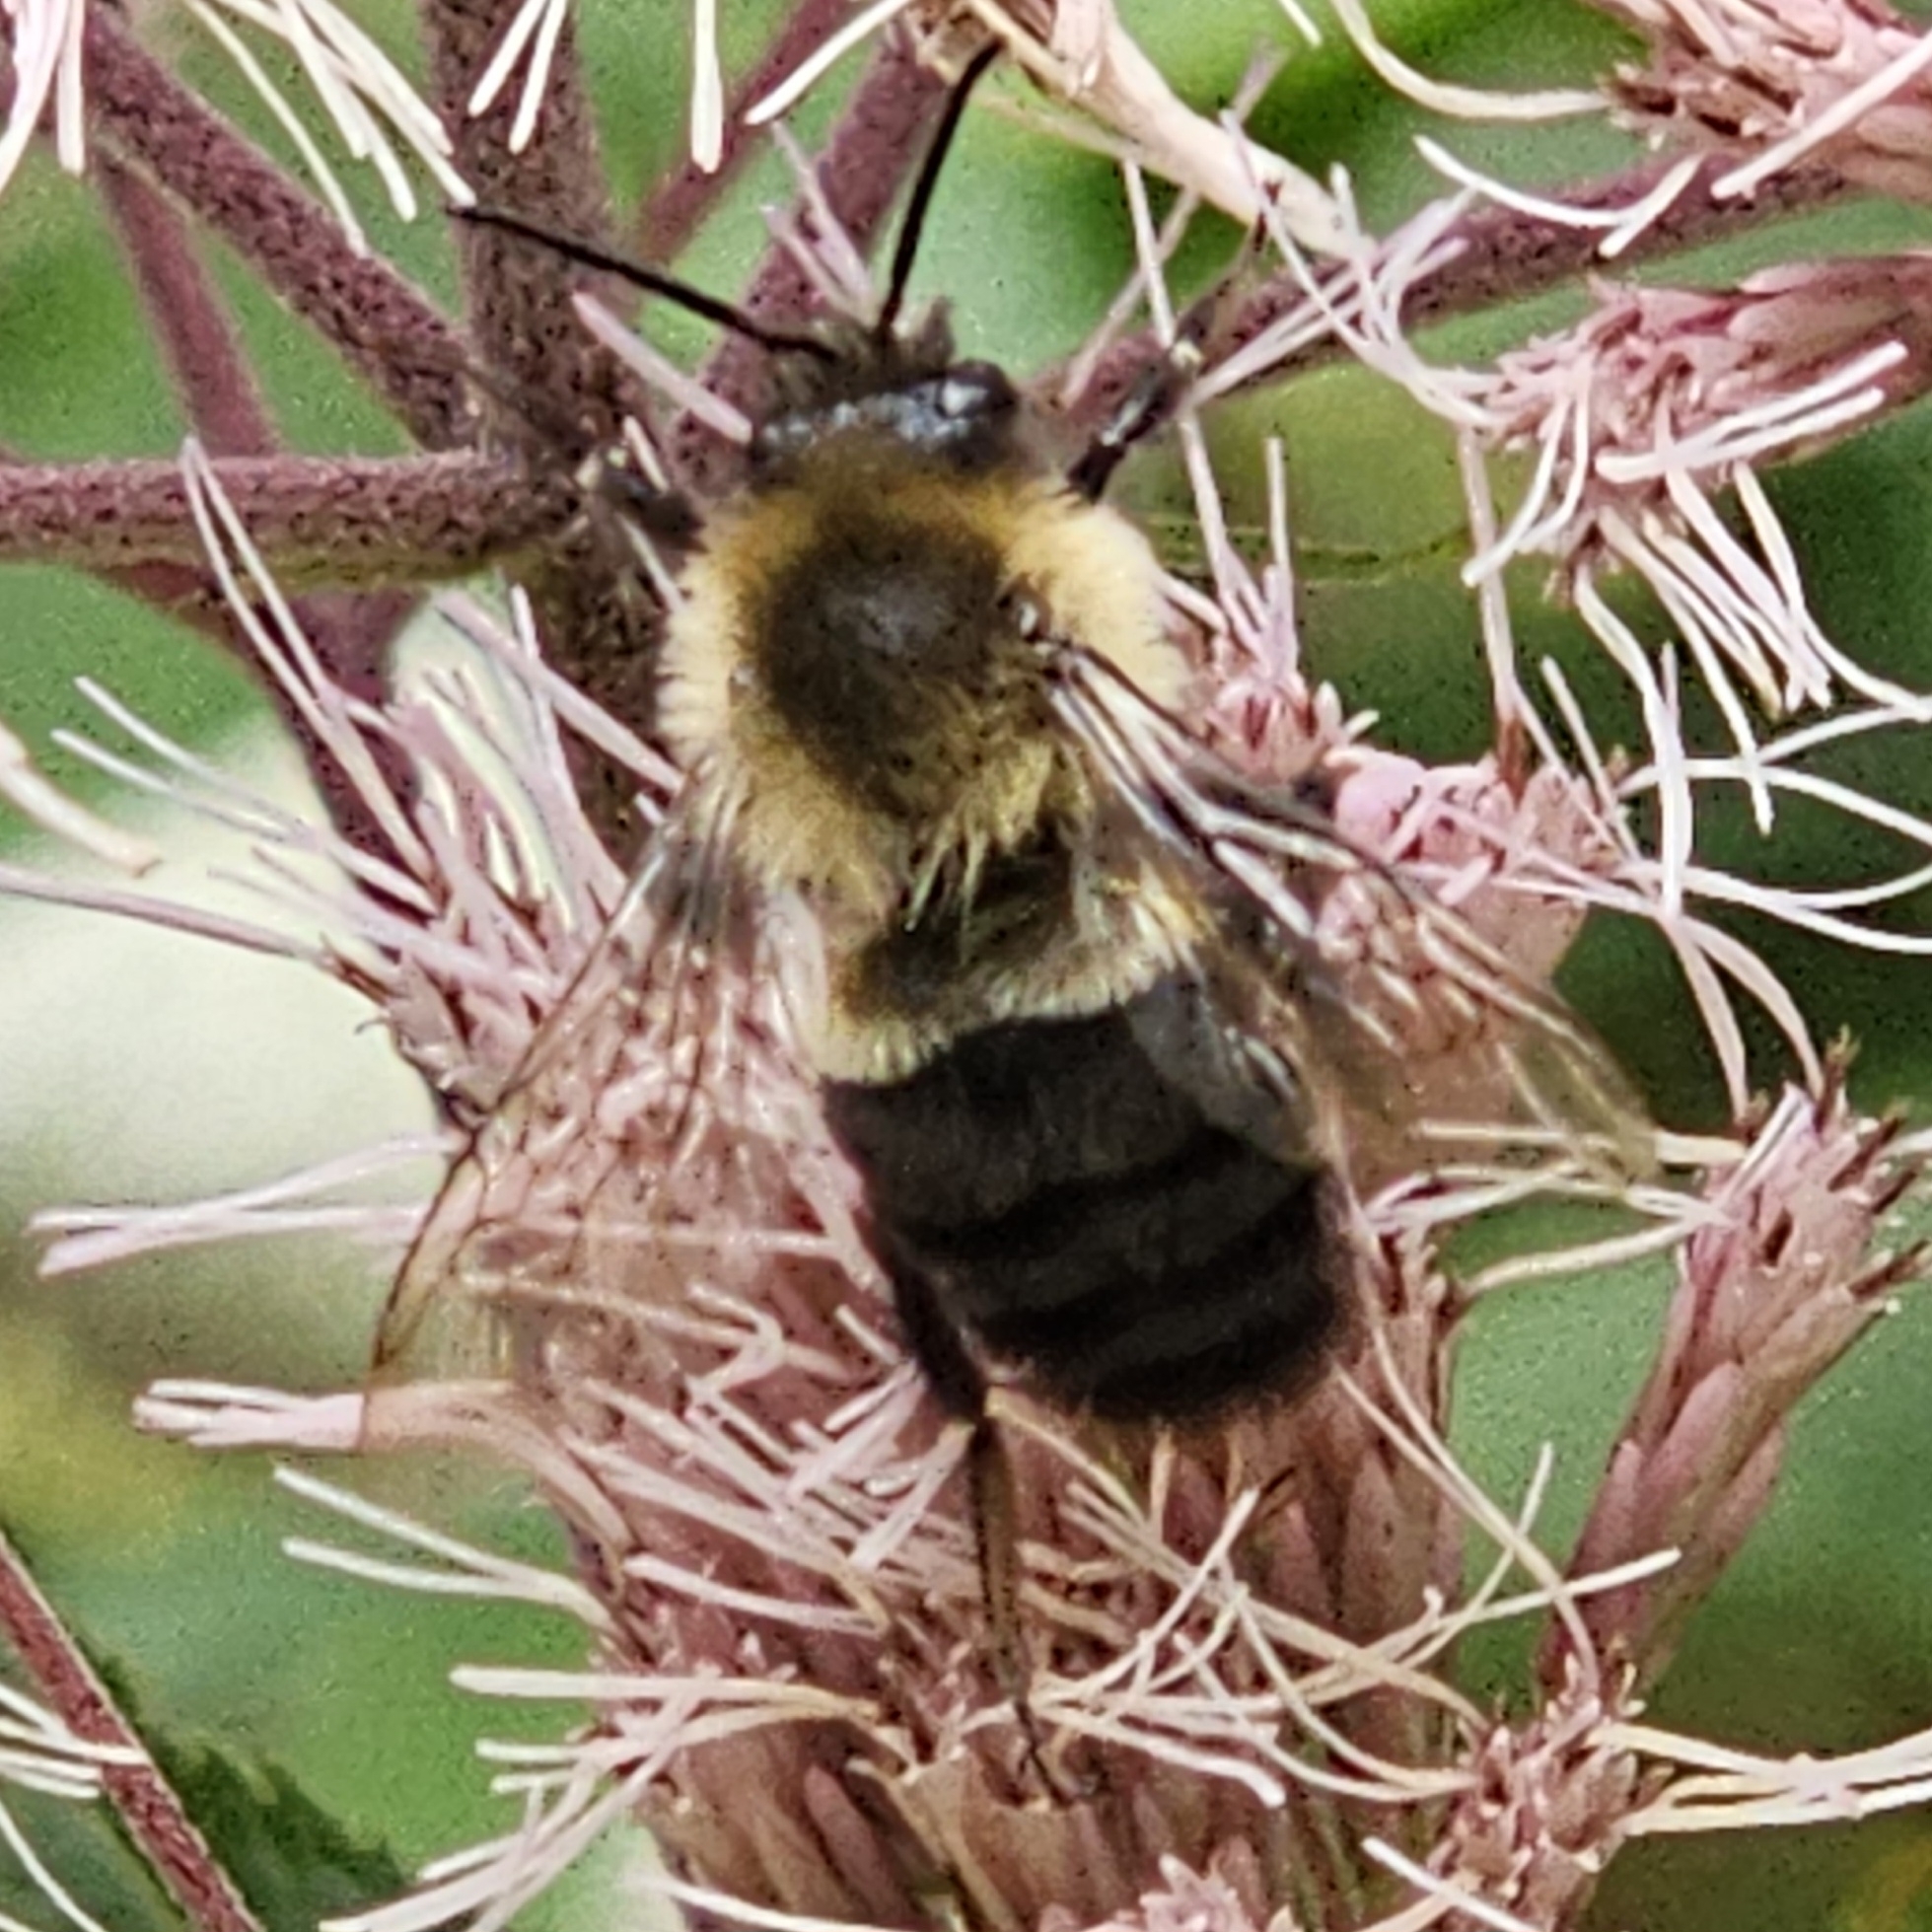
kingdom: Animalia
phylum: Arthropoda
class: Insecta
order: Hymenoptera
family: Apidae
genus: Bombus
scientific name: Bombus impatiens
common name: Common eastern bumble bee
